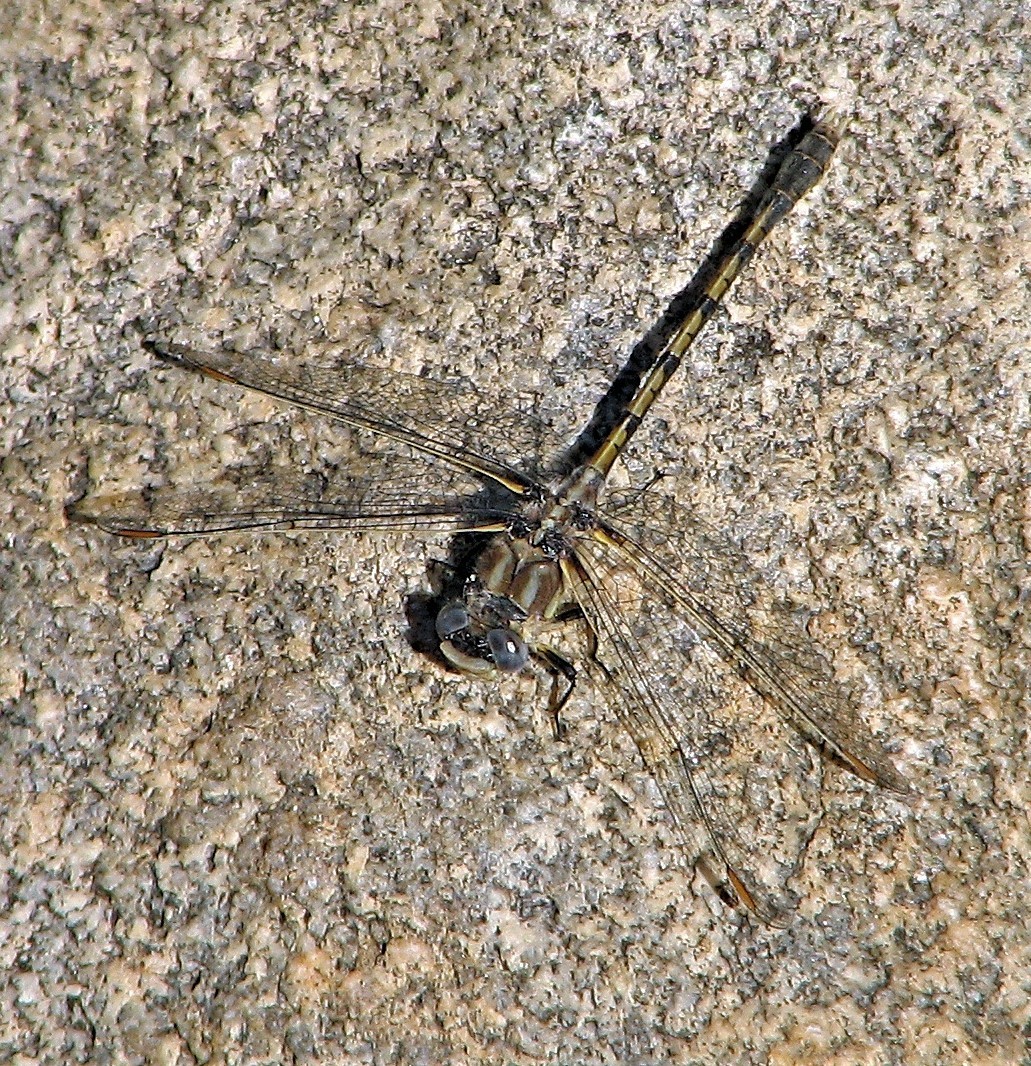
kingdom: Animalia
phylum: Arthropoda
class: Insecta
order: Odonata
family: Gomphidae
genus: Progomphus
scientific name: Progomphus joergenseni
